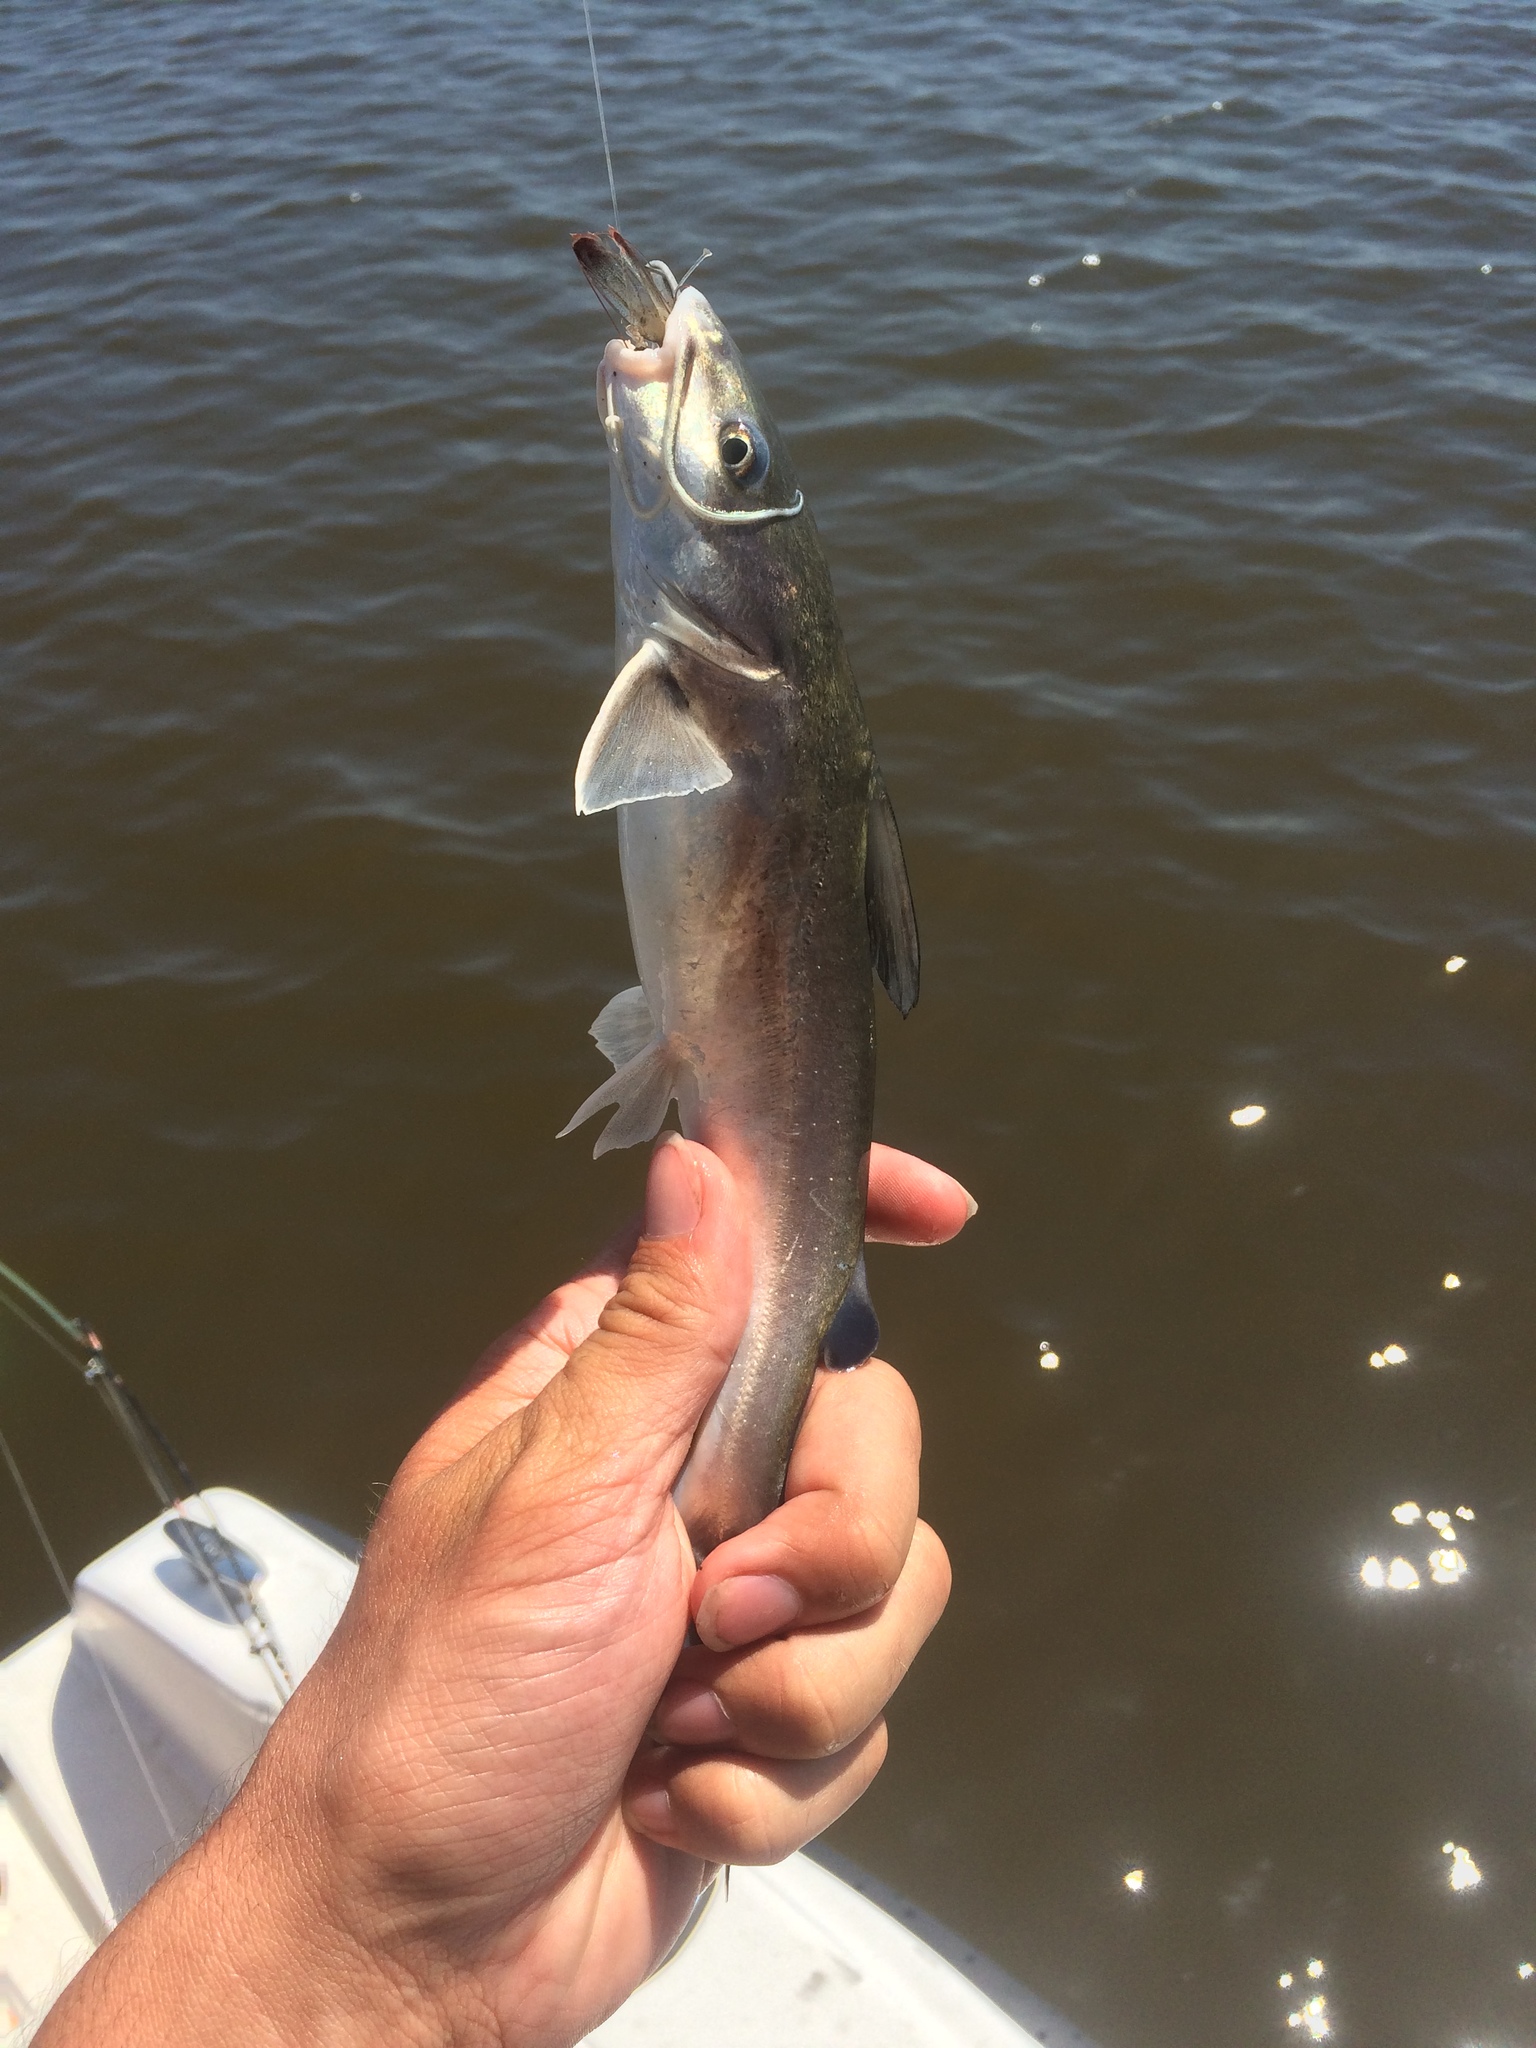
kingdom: Animalia
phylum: Chordata
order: Siluriformes
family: Ariidae
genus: Ariopsis
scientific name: Ariopsis felis
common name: Hardhead catfish
